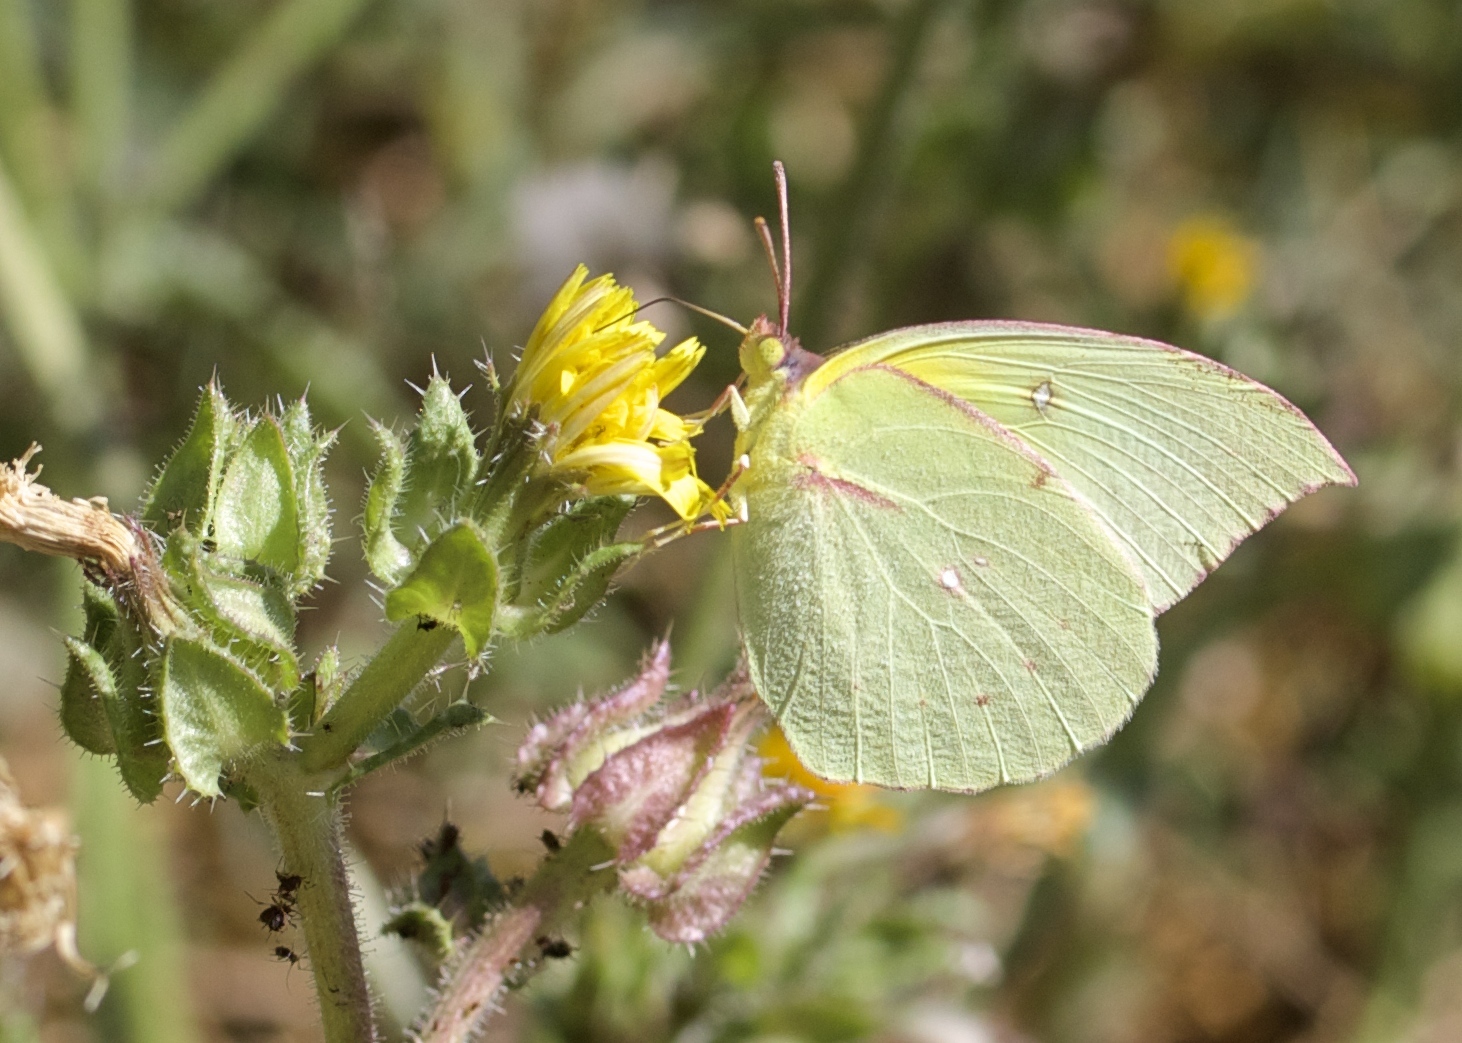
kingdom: Animalia
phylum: Arthropoda
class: Insecta
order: Lepidoptera
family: Pieridae
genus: Zerene
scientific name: Zerene eurydice
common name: California dogface
